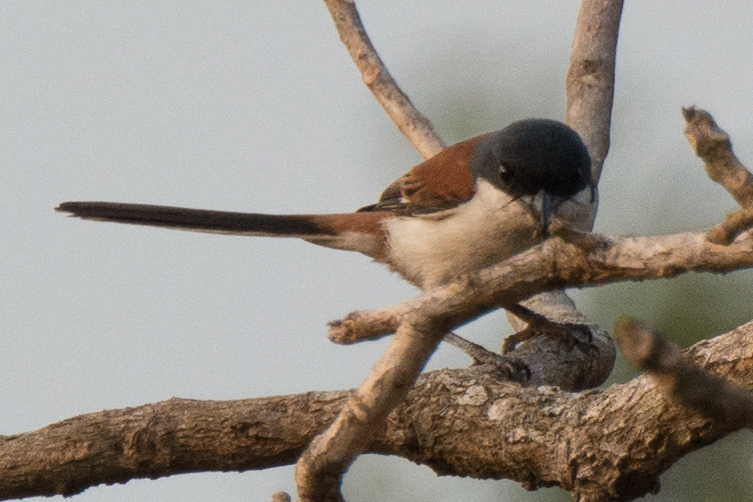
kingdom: Animalia
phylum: Chordata
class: Aves
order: Passeriformes
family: Laniidae
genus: Lanius
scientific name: Lanius collurioides
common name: Burmese shrike
